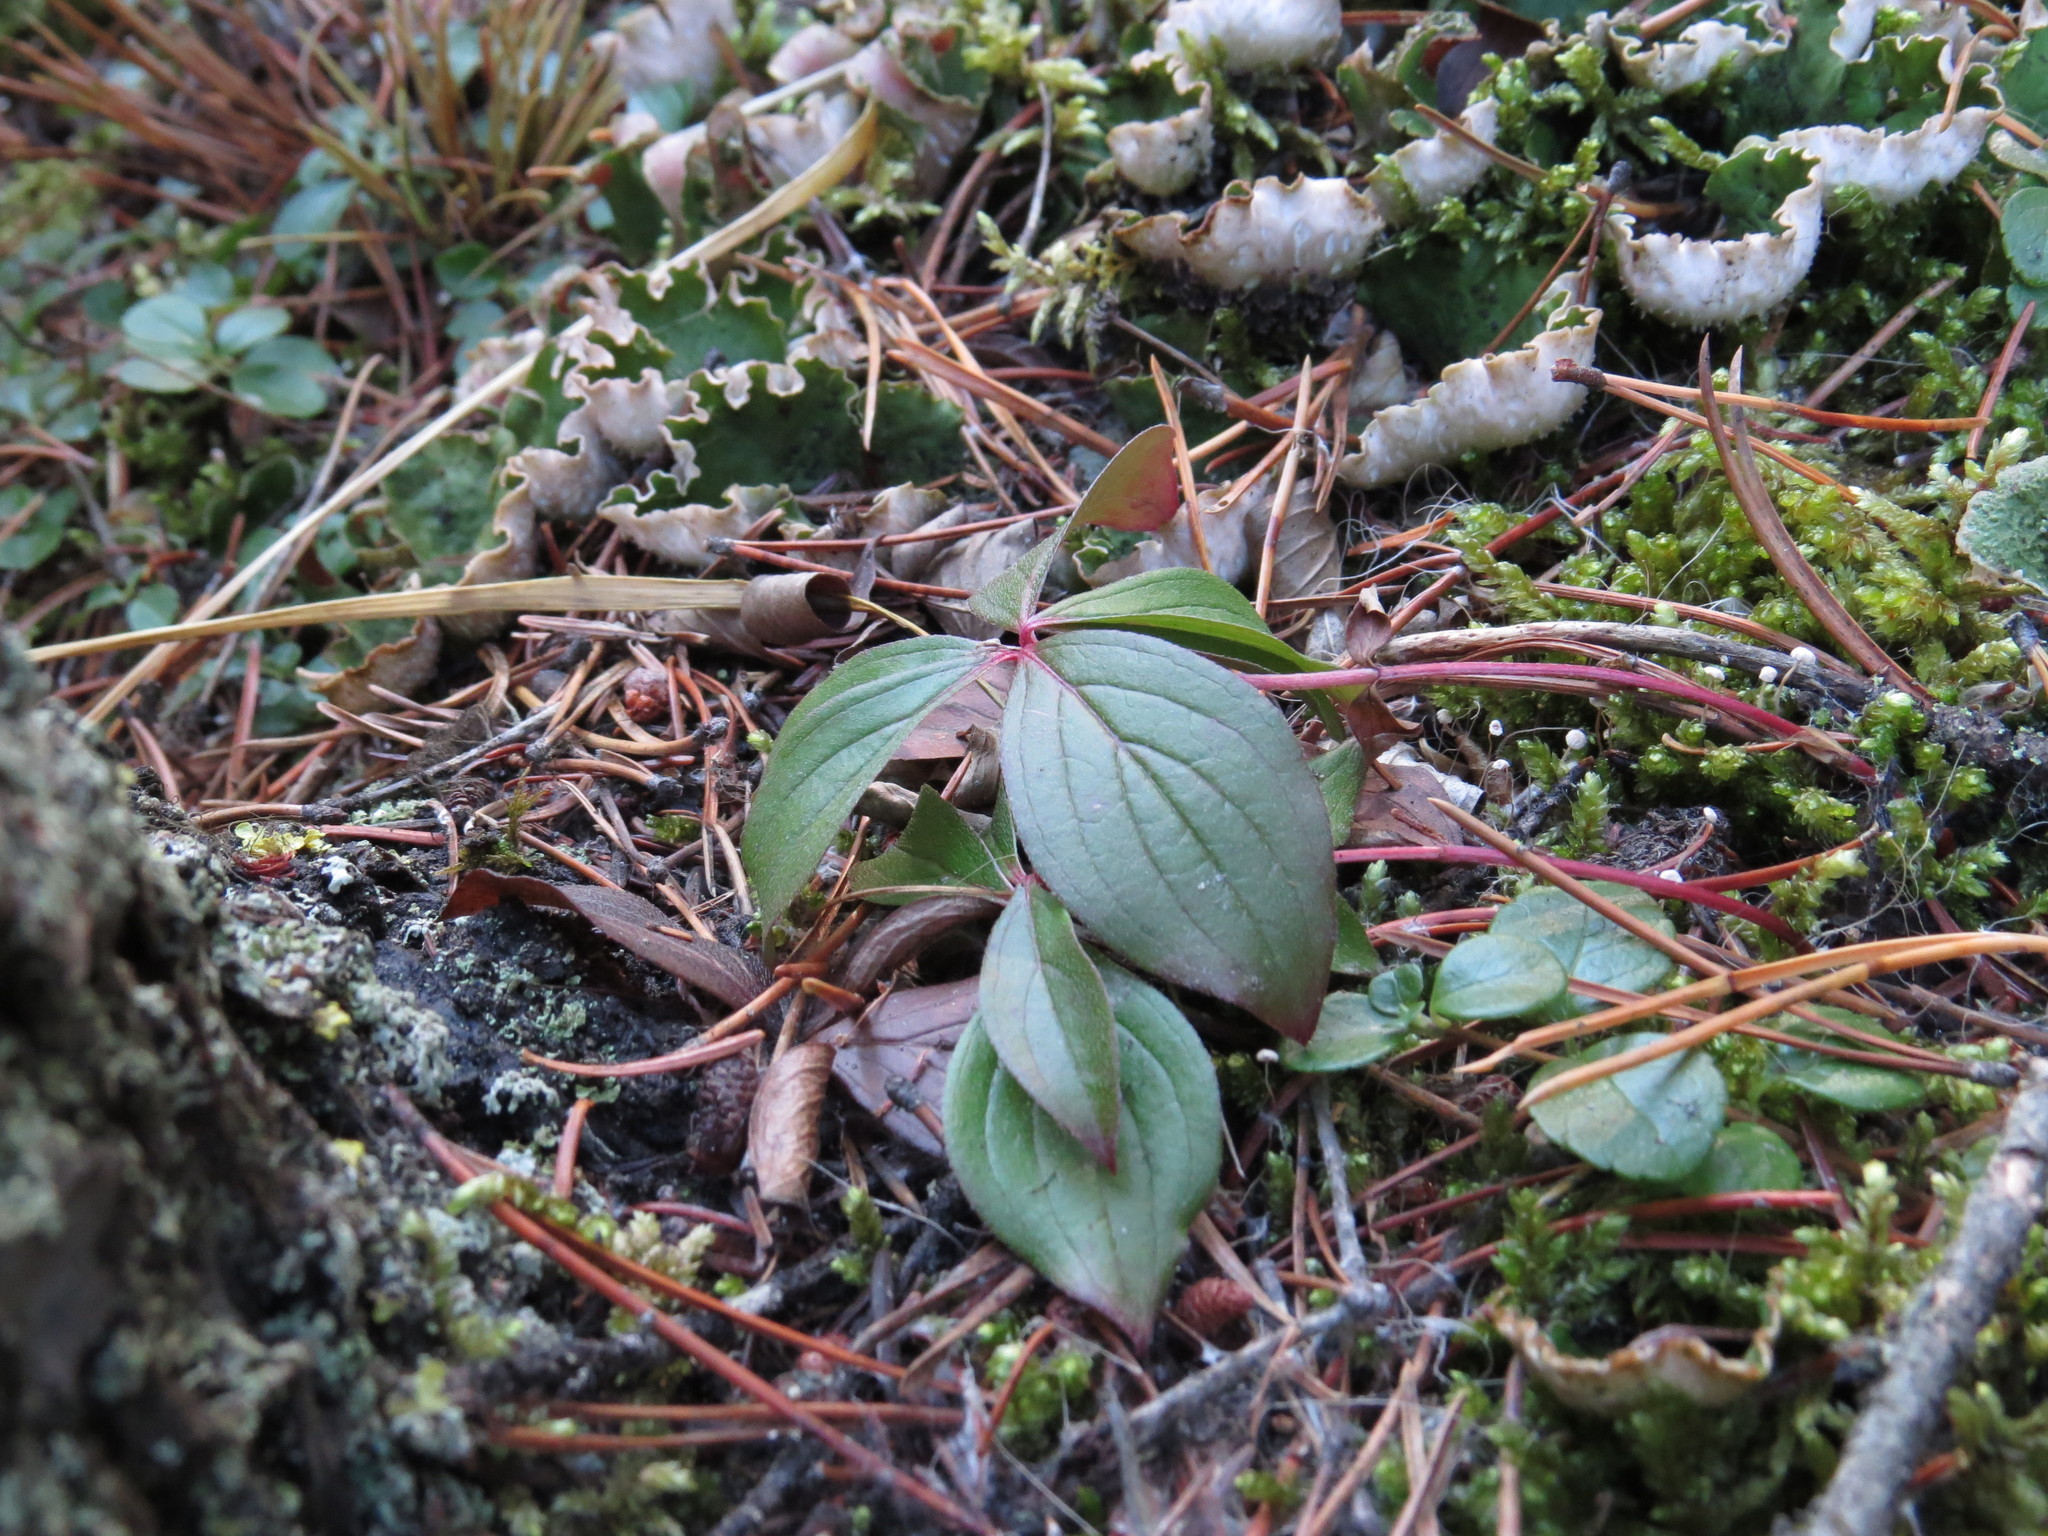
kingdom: Plantae
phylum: Tracheophyta
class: Magnoliopsida
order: Cornales
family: Cornaceae
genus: Cornus
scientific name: Cornus canadensis
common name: Creeping dogwood
